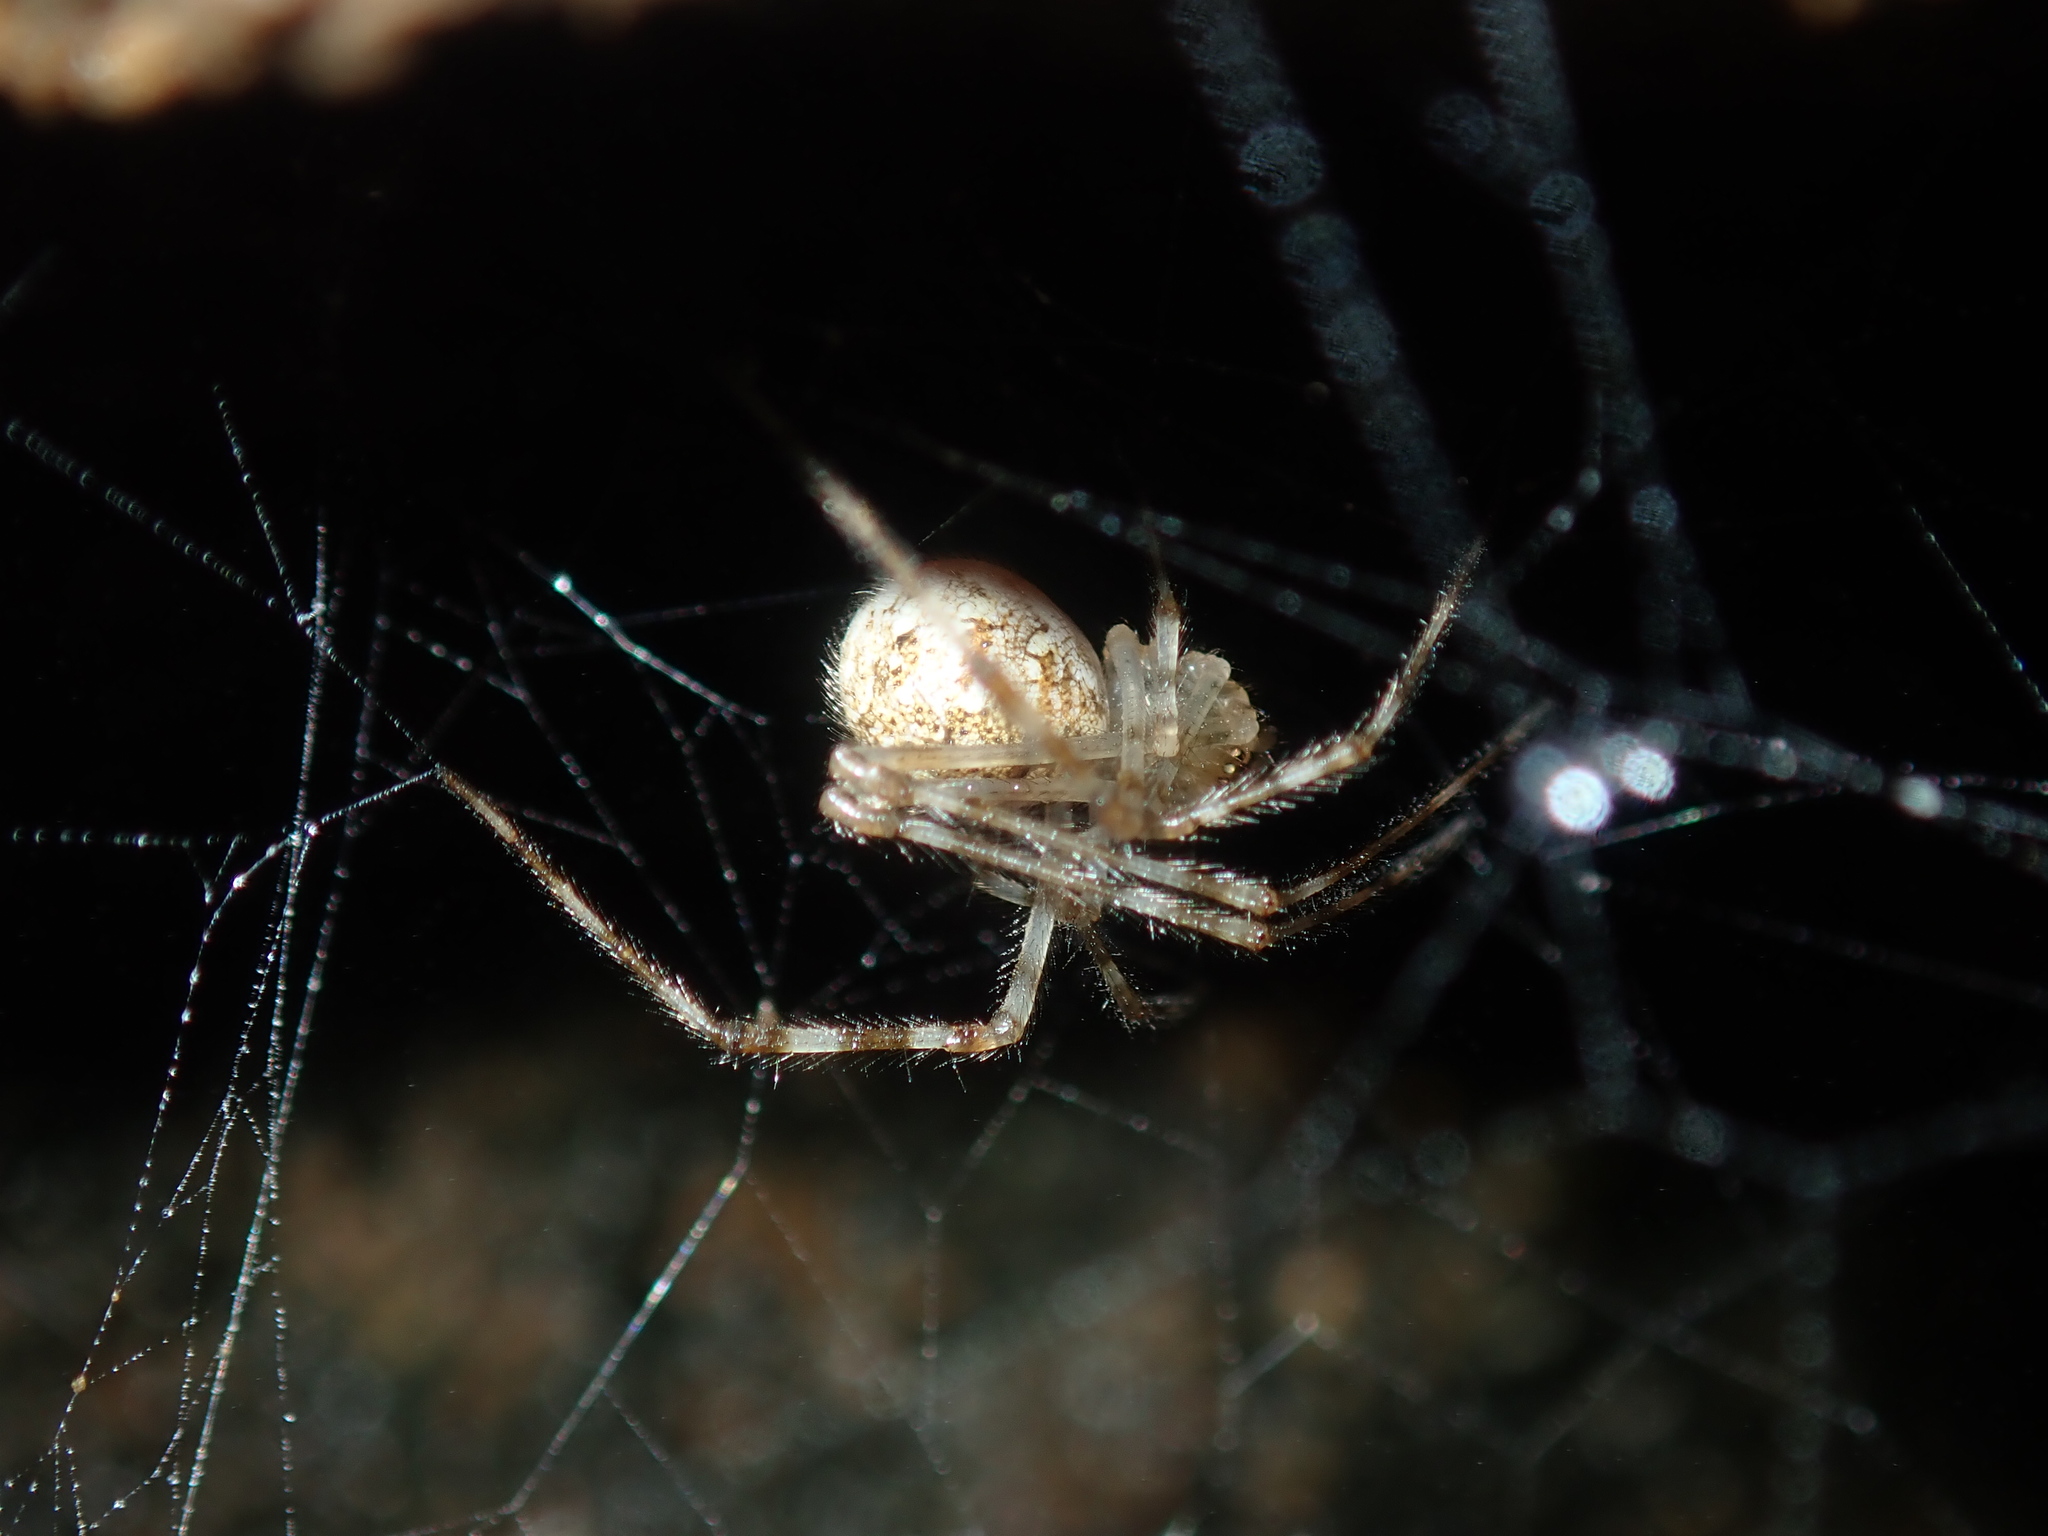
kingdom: Animalia
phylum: Arthropoda
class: Arachnida
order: Araneae
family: Theridiidae
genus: Cryptachaea
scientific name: Cryptachaea gigantipes
